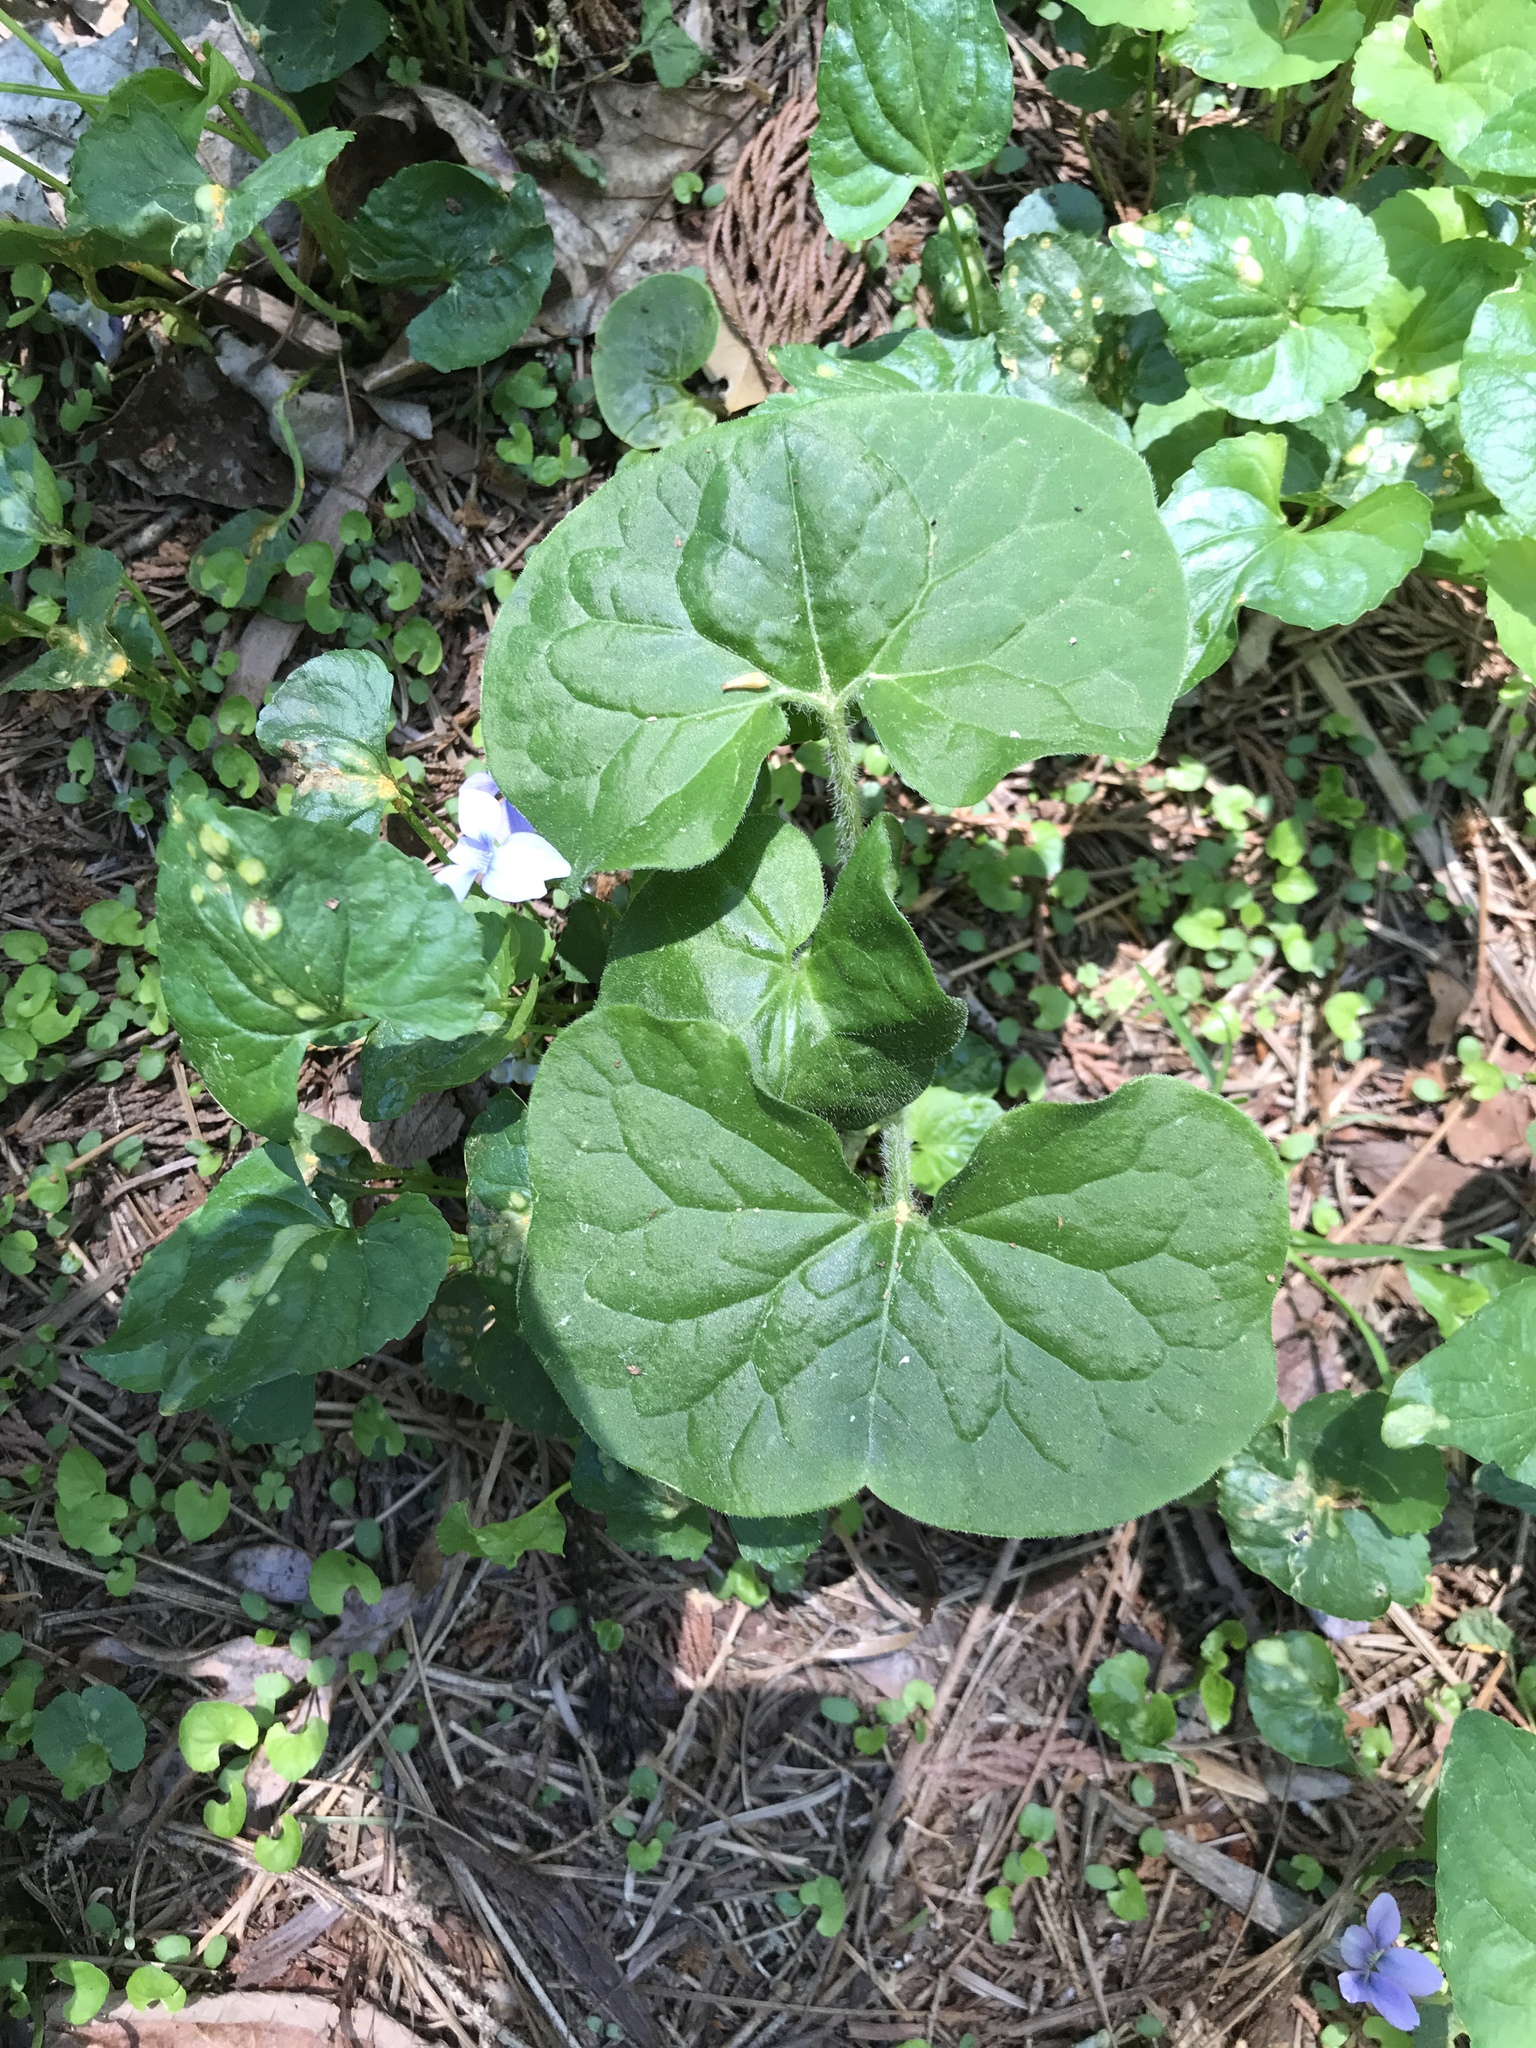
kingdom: Plantae
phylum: Tracheophyta
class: Magnoliopsida
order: Piperales
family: Aristolochiaceae
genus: Asarum
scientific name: Asarum canadense
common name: Wild ginger
